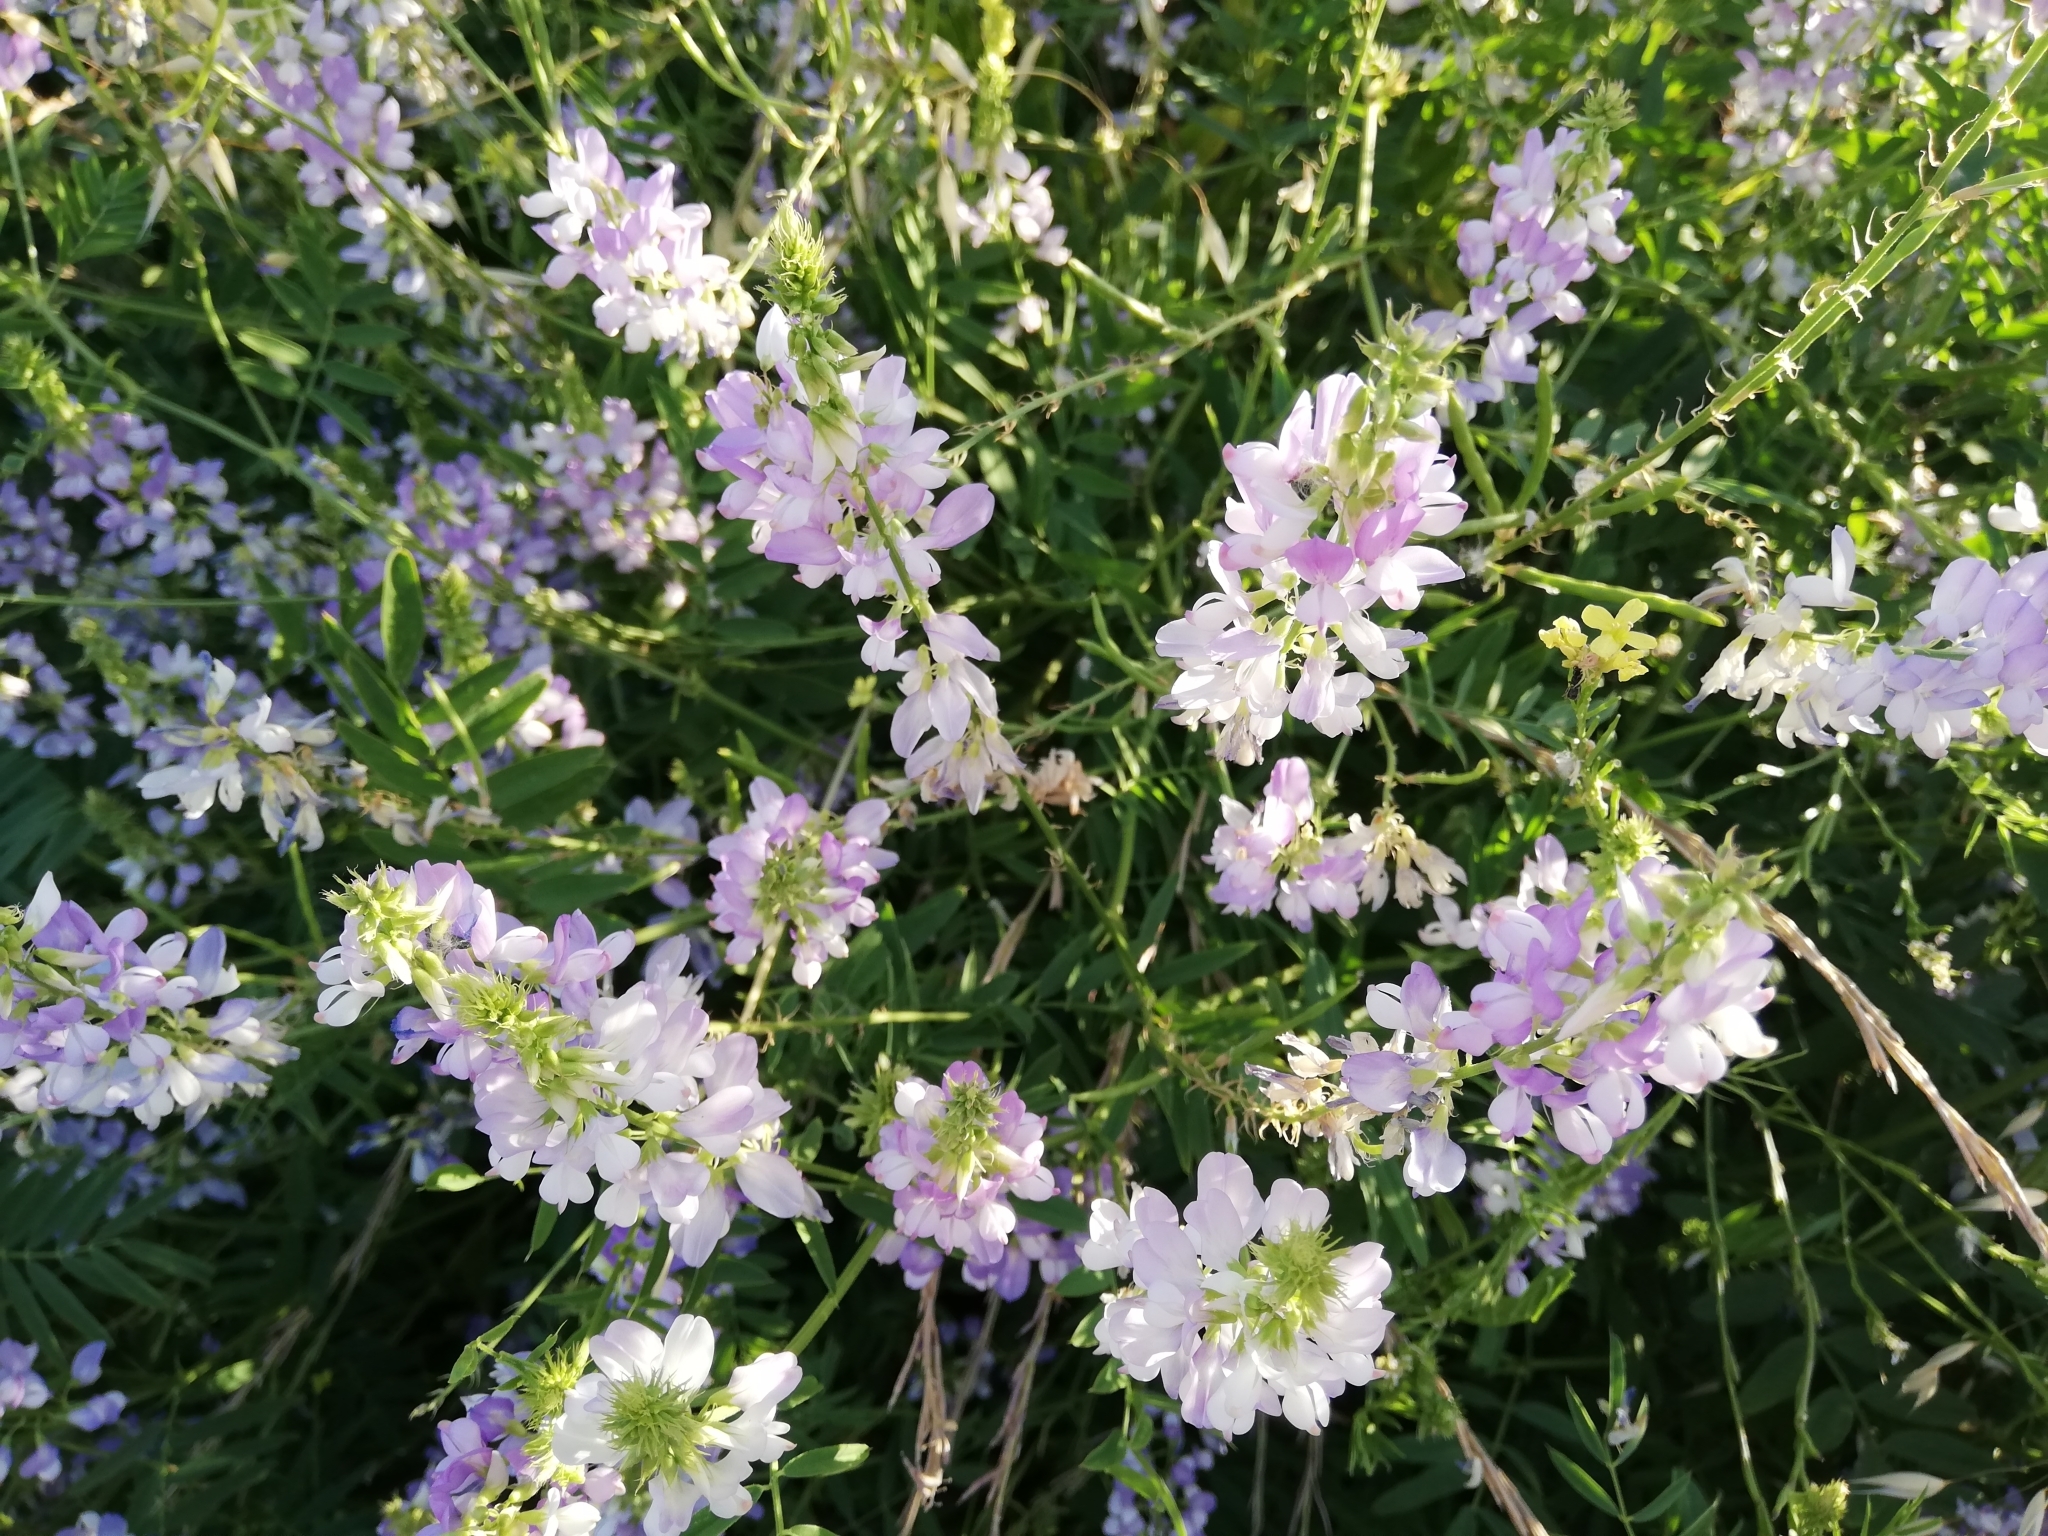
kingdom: Plantae
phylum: Tracheophyta
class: Magnoliopsida
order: Fabales
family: Fabaceae
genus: Galega
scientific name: Galega officinalis
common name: Goat's-rue
